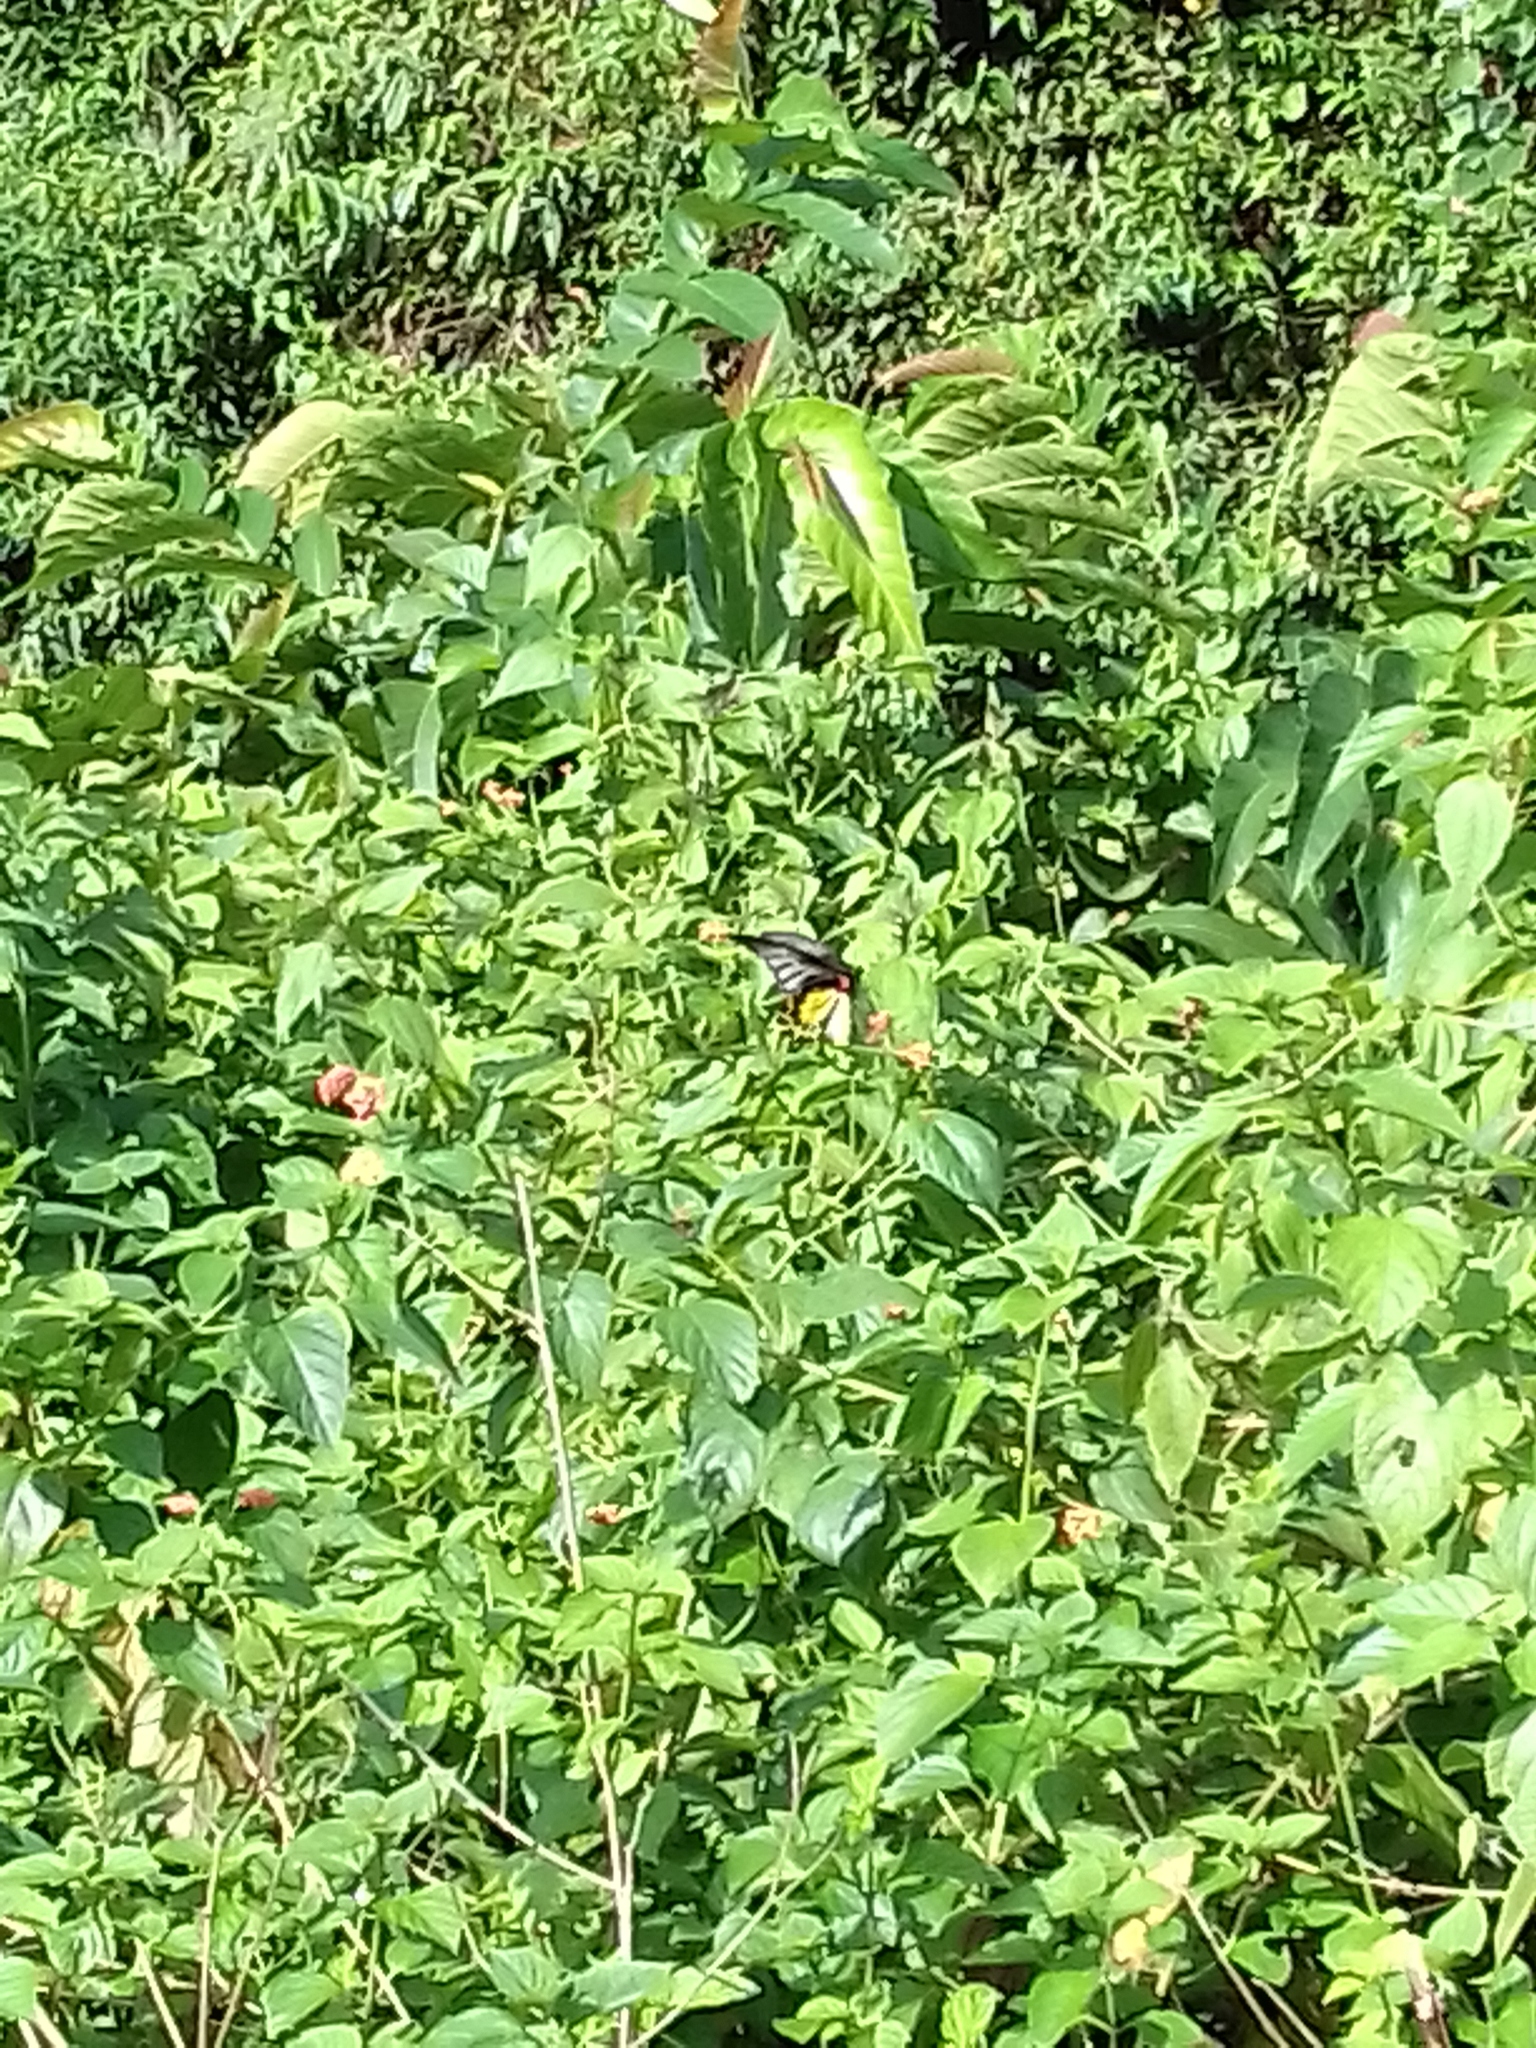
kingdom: Animalia
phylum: Arthropoda
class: Insecta
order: Lepidoptera
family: Papilionidae
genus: Troides
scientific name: Troides helena
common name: Common birdwing
